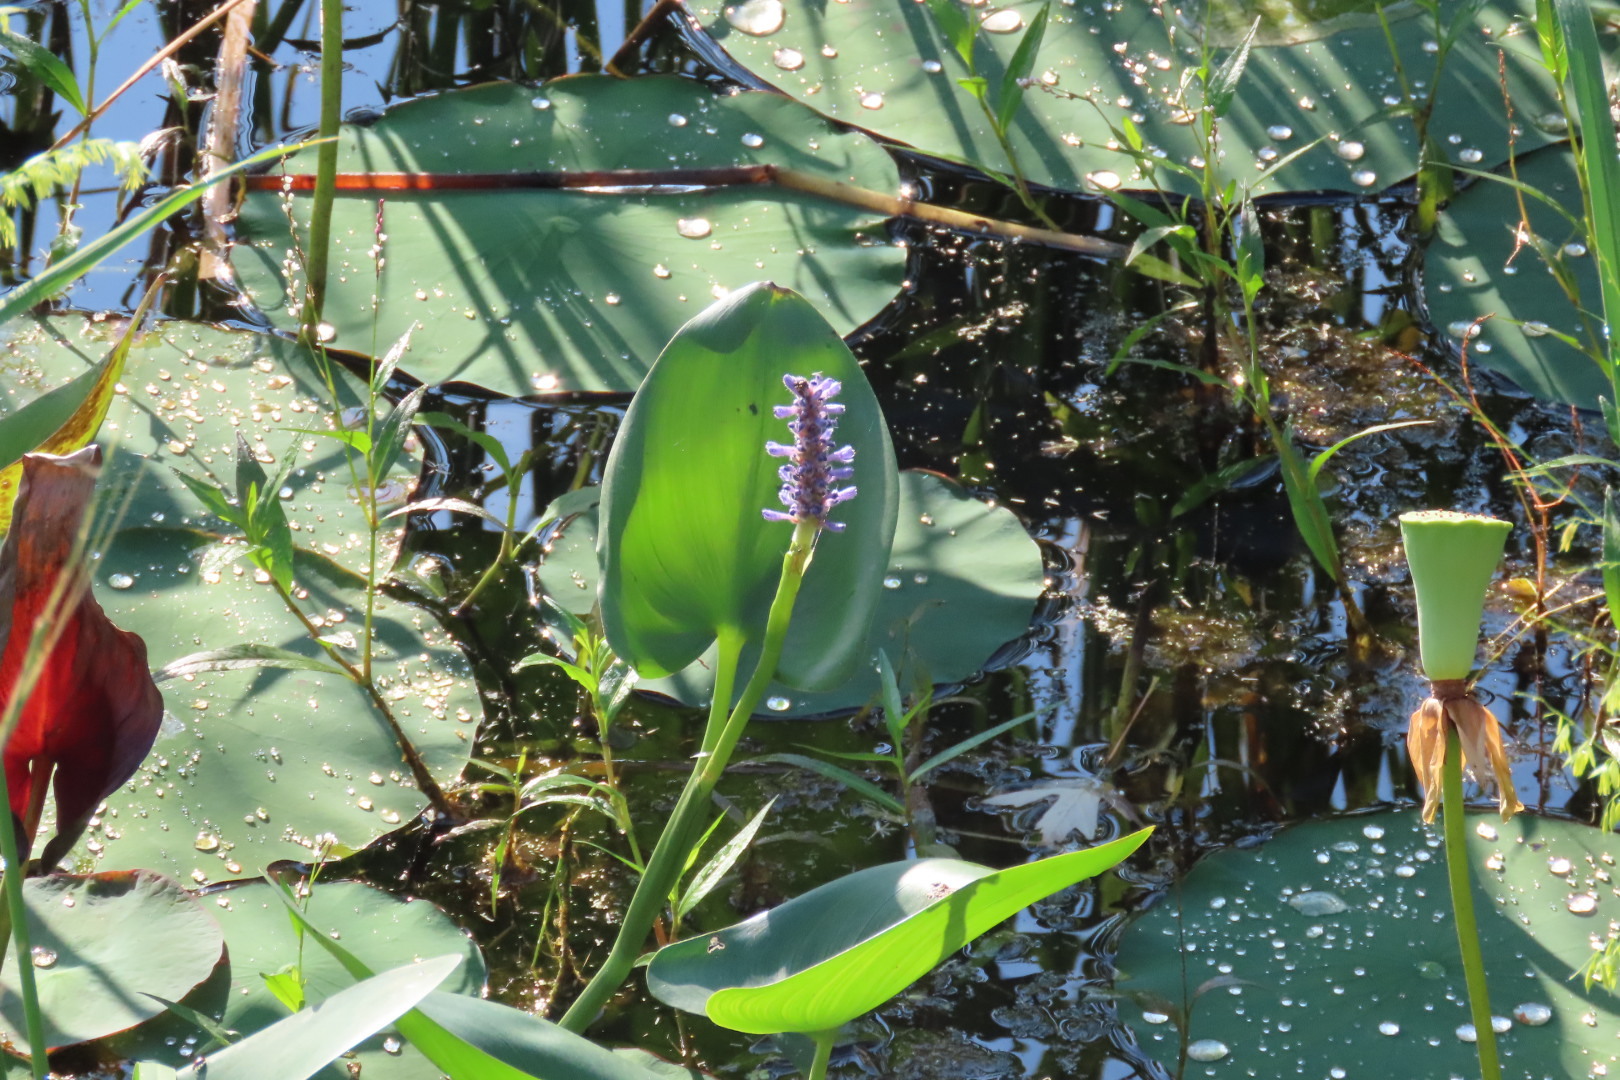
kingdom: Plantae
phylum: Tracheophyta
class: Liliopsida
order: Commelinales
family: Pontederiaceae
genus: Pontederia
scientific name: Pontederia cordata
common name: Pickerelweed
